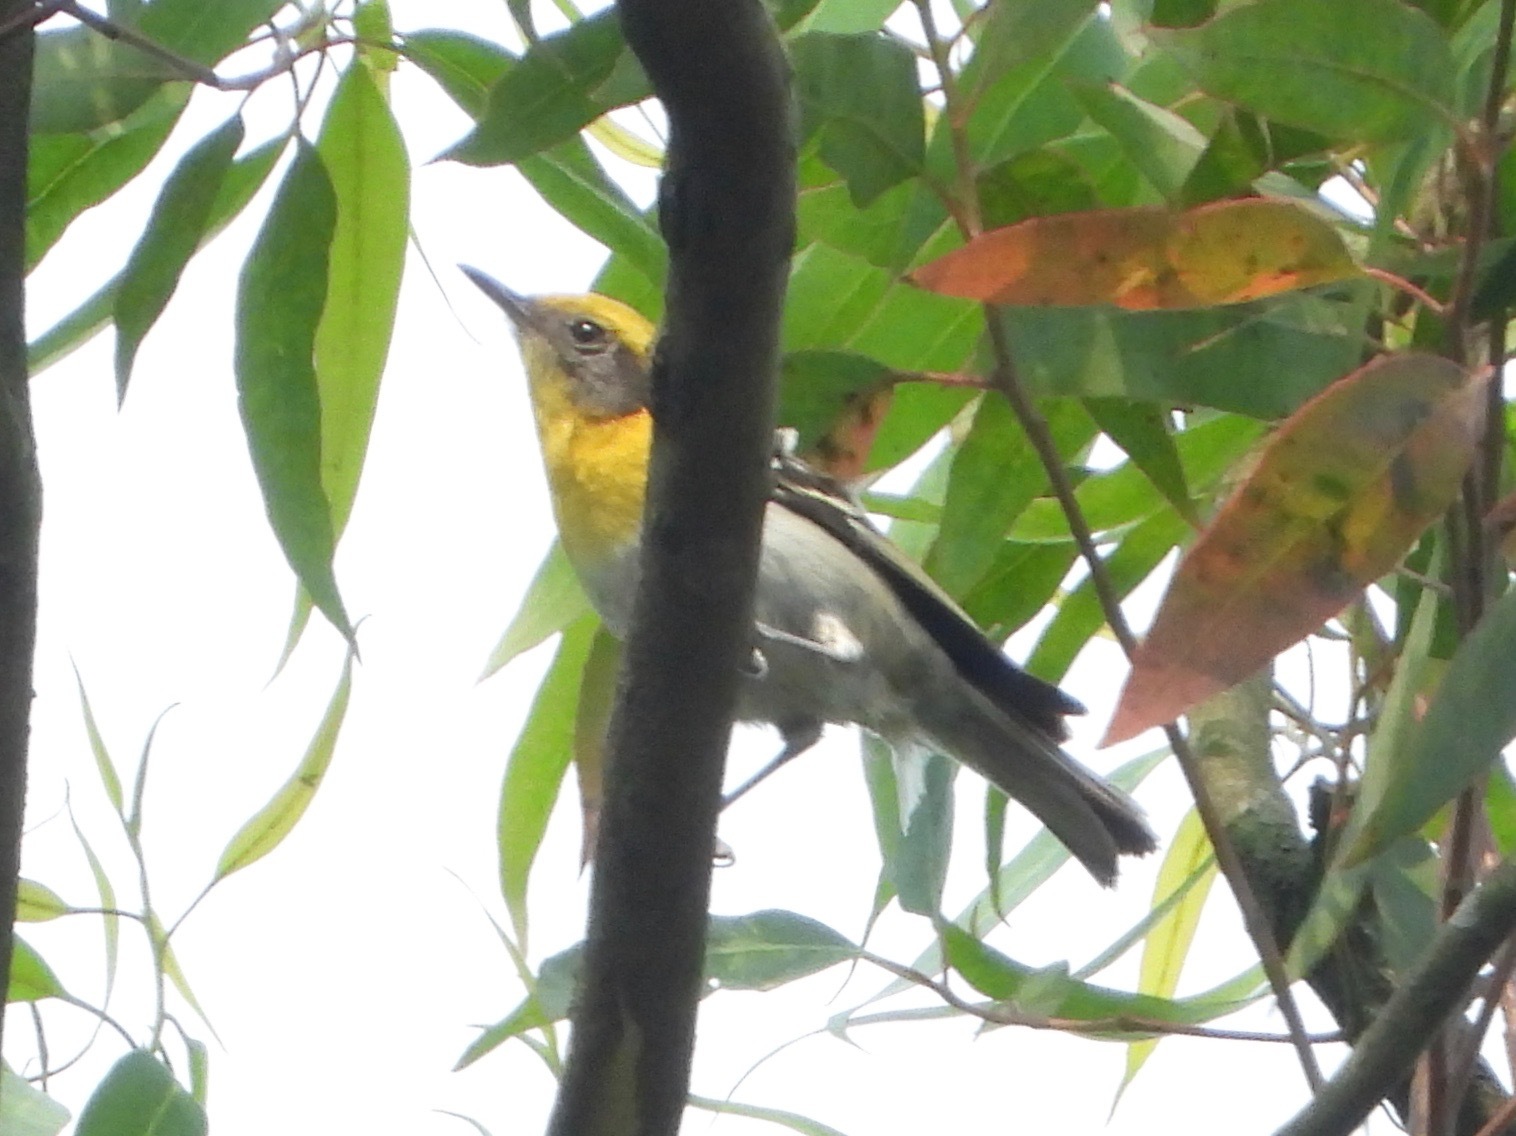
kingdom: Animalia
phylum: Chordata
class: Aves
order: Passeriformes
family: Peucedramidae
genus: Peucedramus
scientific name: Peucedramus taeniatus
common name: Olive warbler
